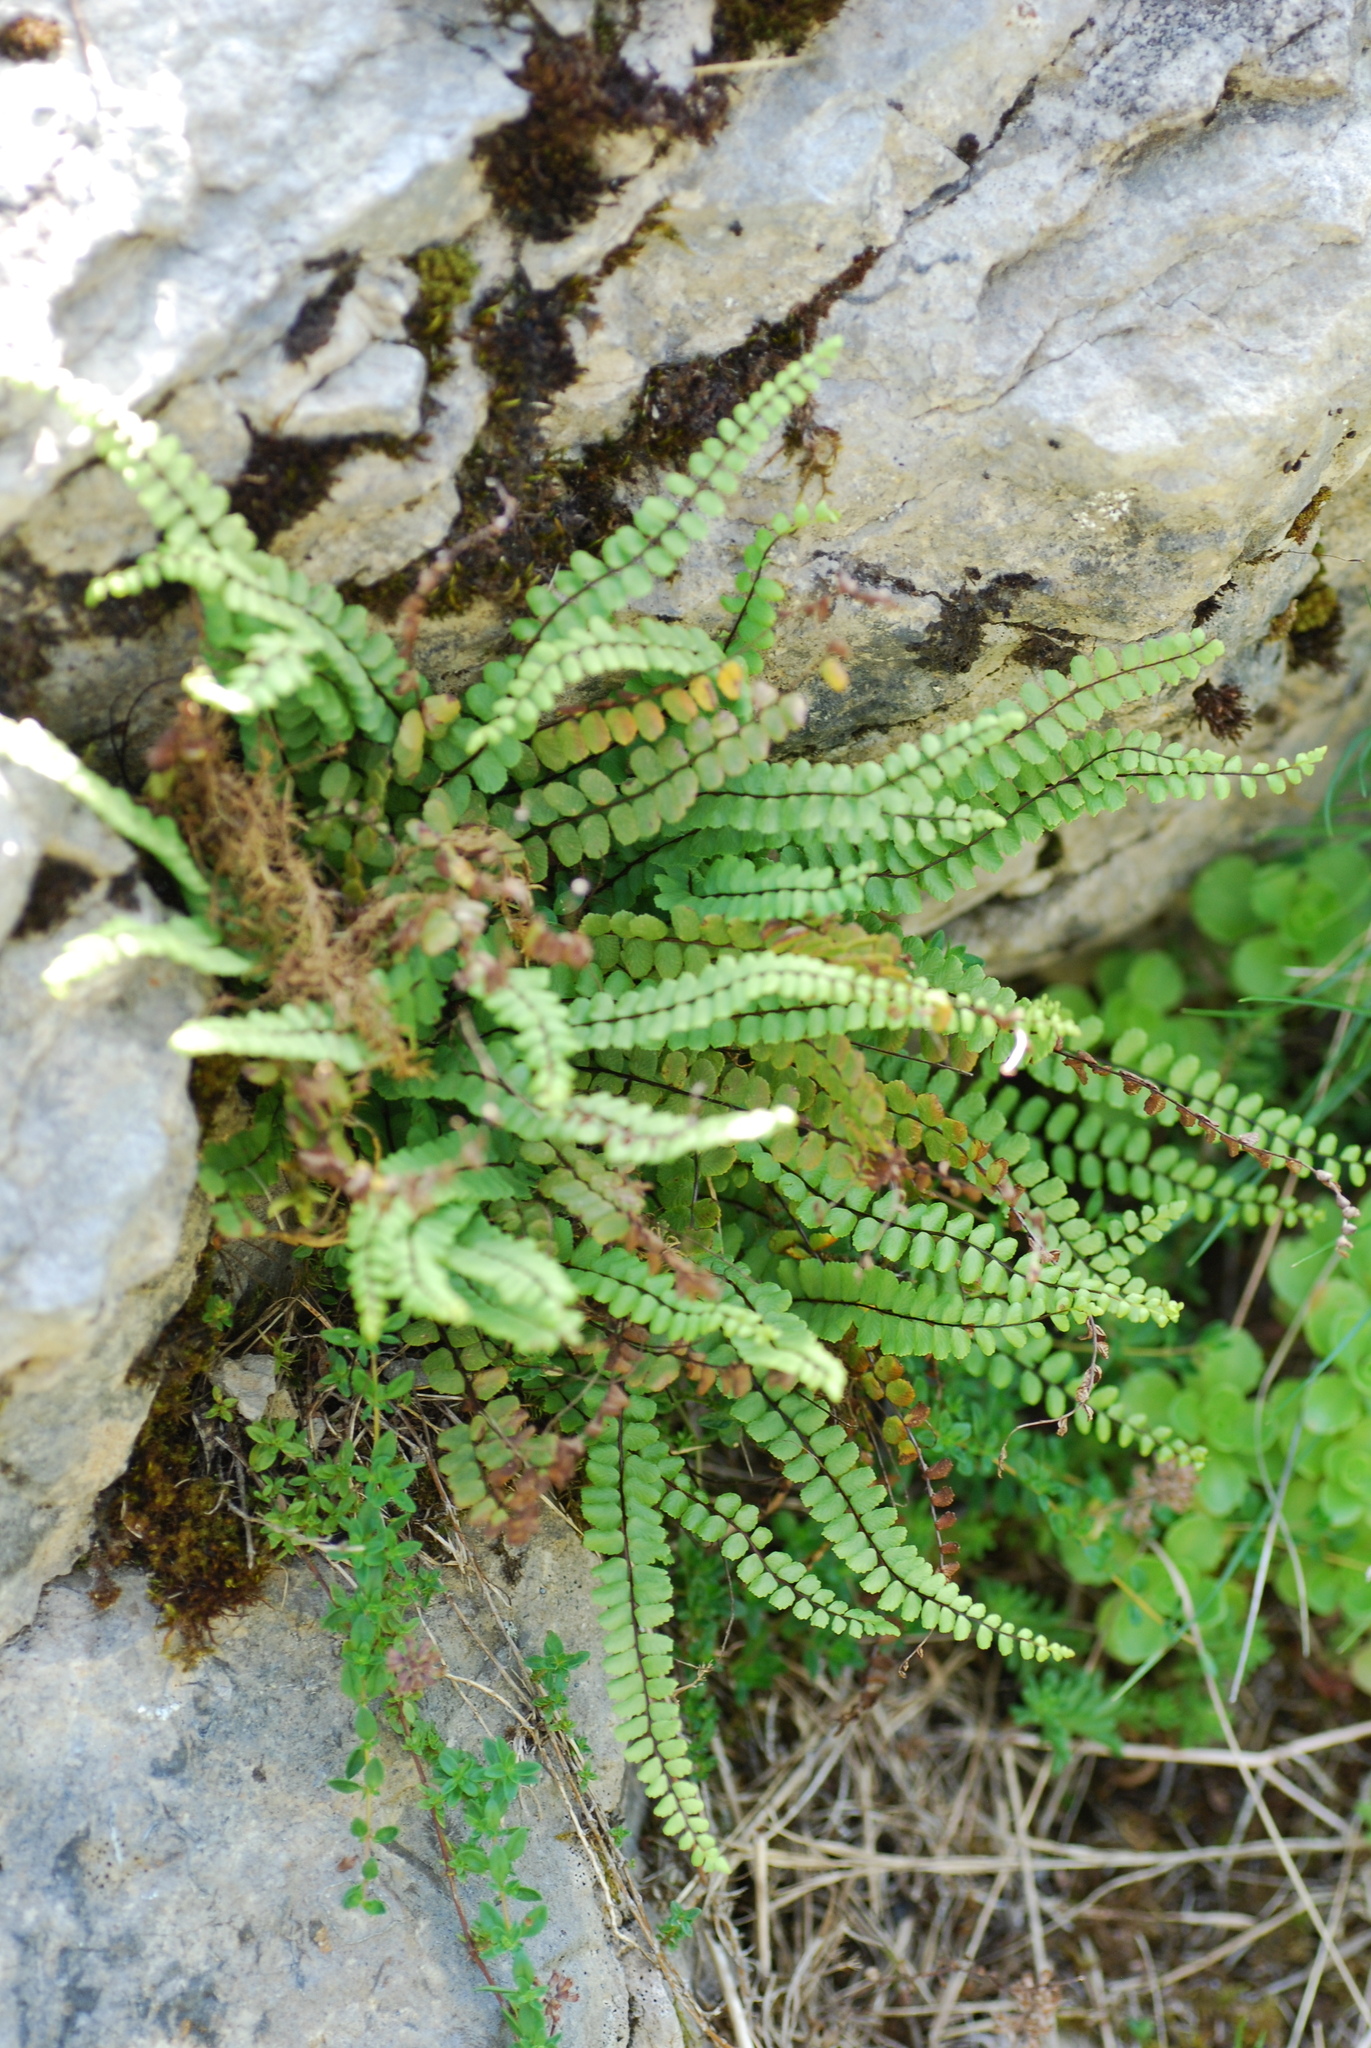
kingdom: Plantae
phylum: Tracheophyta
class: Polypodiopsida
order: Polypodiales
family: Aspleniaceae
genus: Asplenium
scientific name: Asplenium trichomanes
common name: Maidenhair spleenwort
